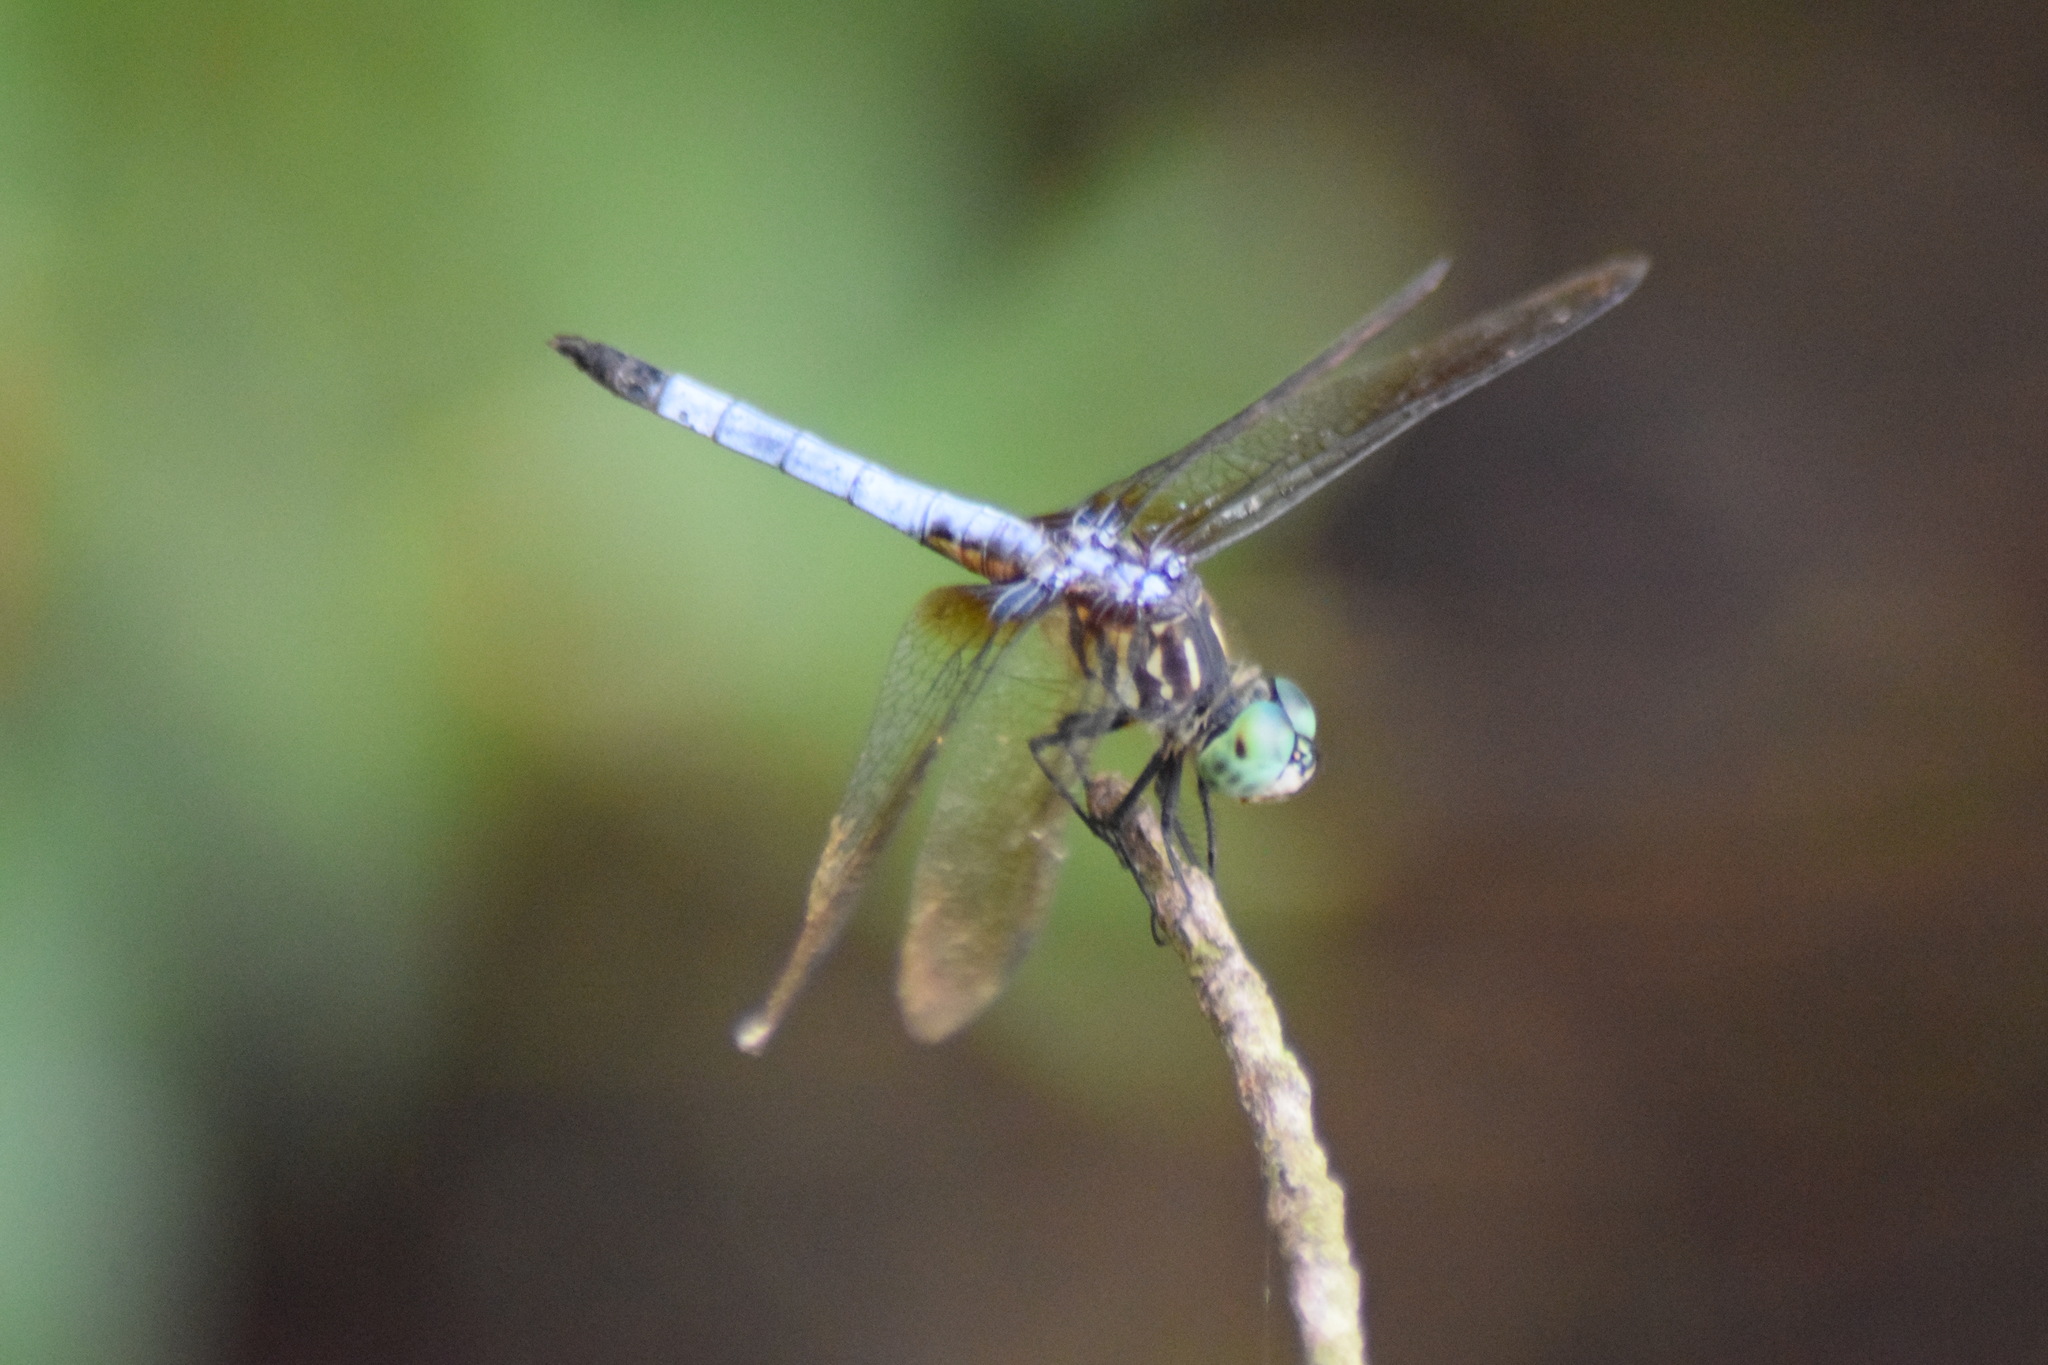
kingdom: Animalia
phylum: Arthropoda
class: Insecta
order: Odonata
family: Libellulidae
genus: Pachydiplax
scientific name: Pachydiplax longipennis
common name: Blue dasher
